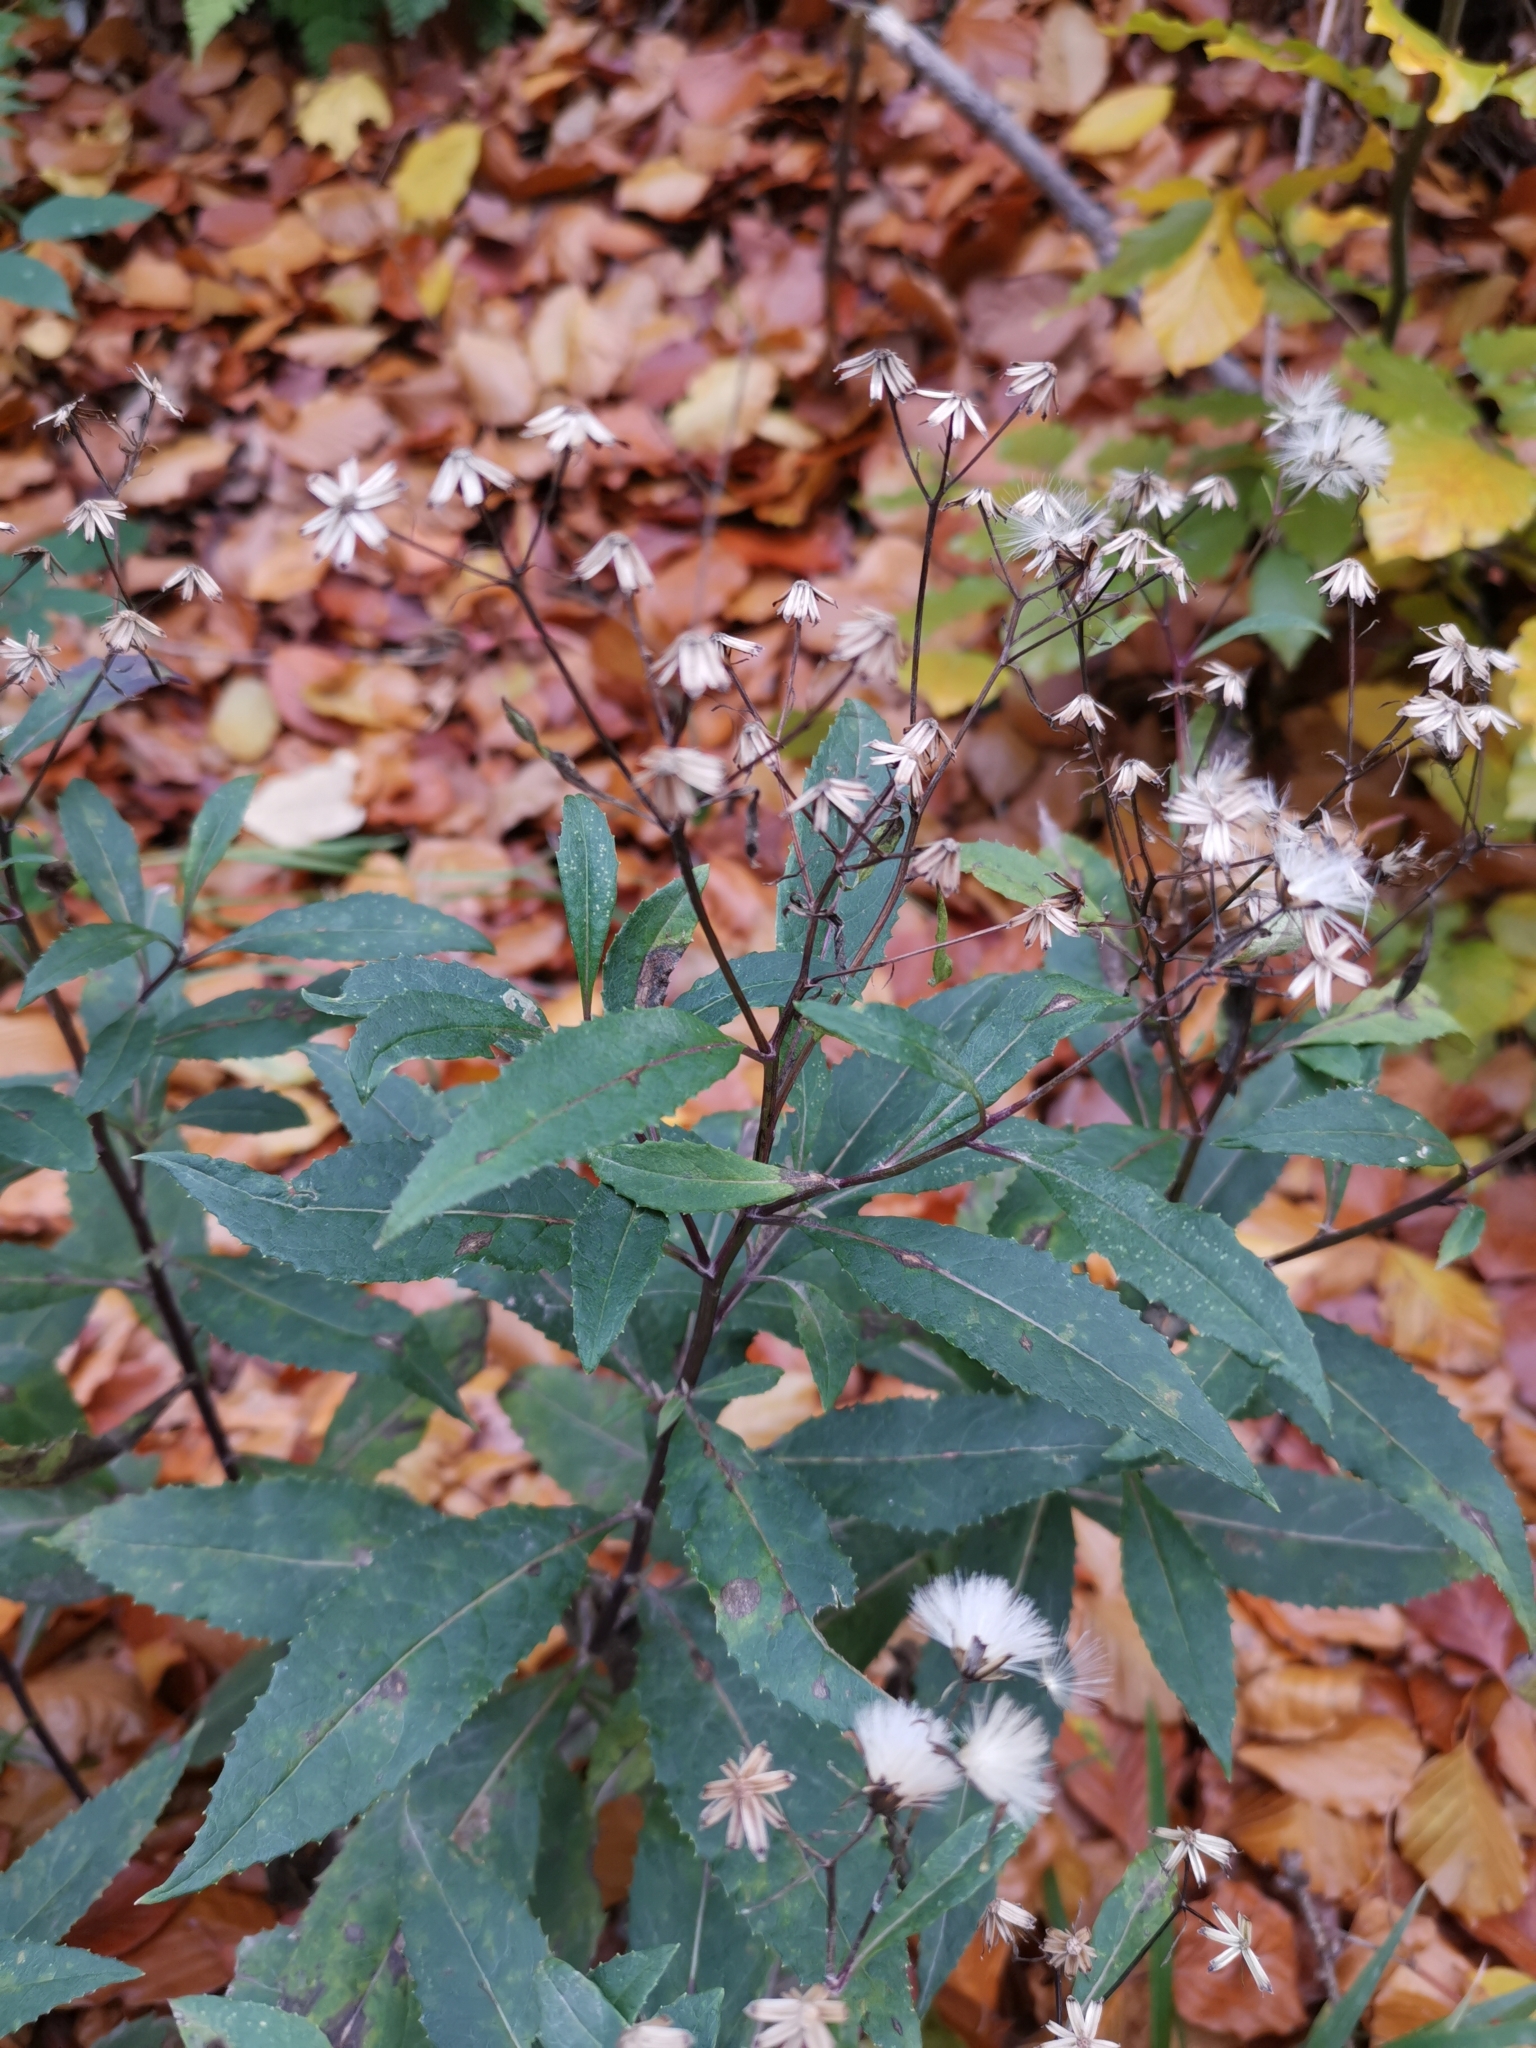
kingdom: Plantae
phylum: Tracheophyta
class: Magnoliopsida
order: Asterales
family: Asteraceae
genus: Senecio
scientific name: Senecio ovatus
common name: Wood ragwort
